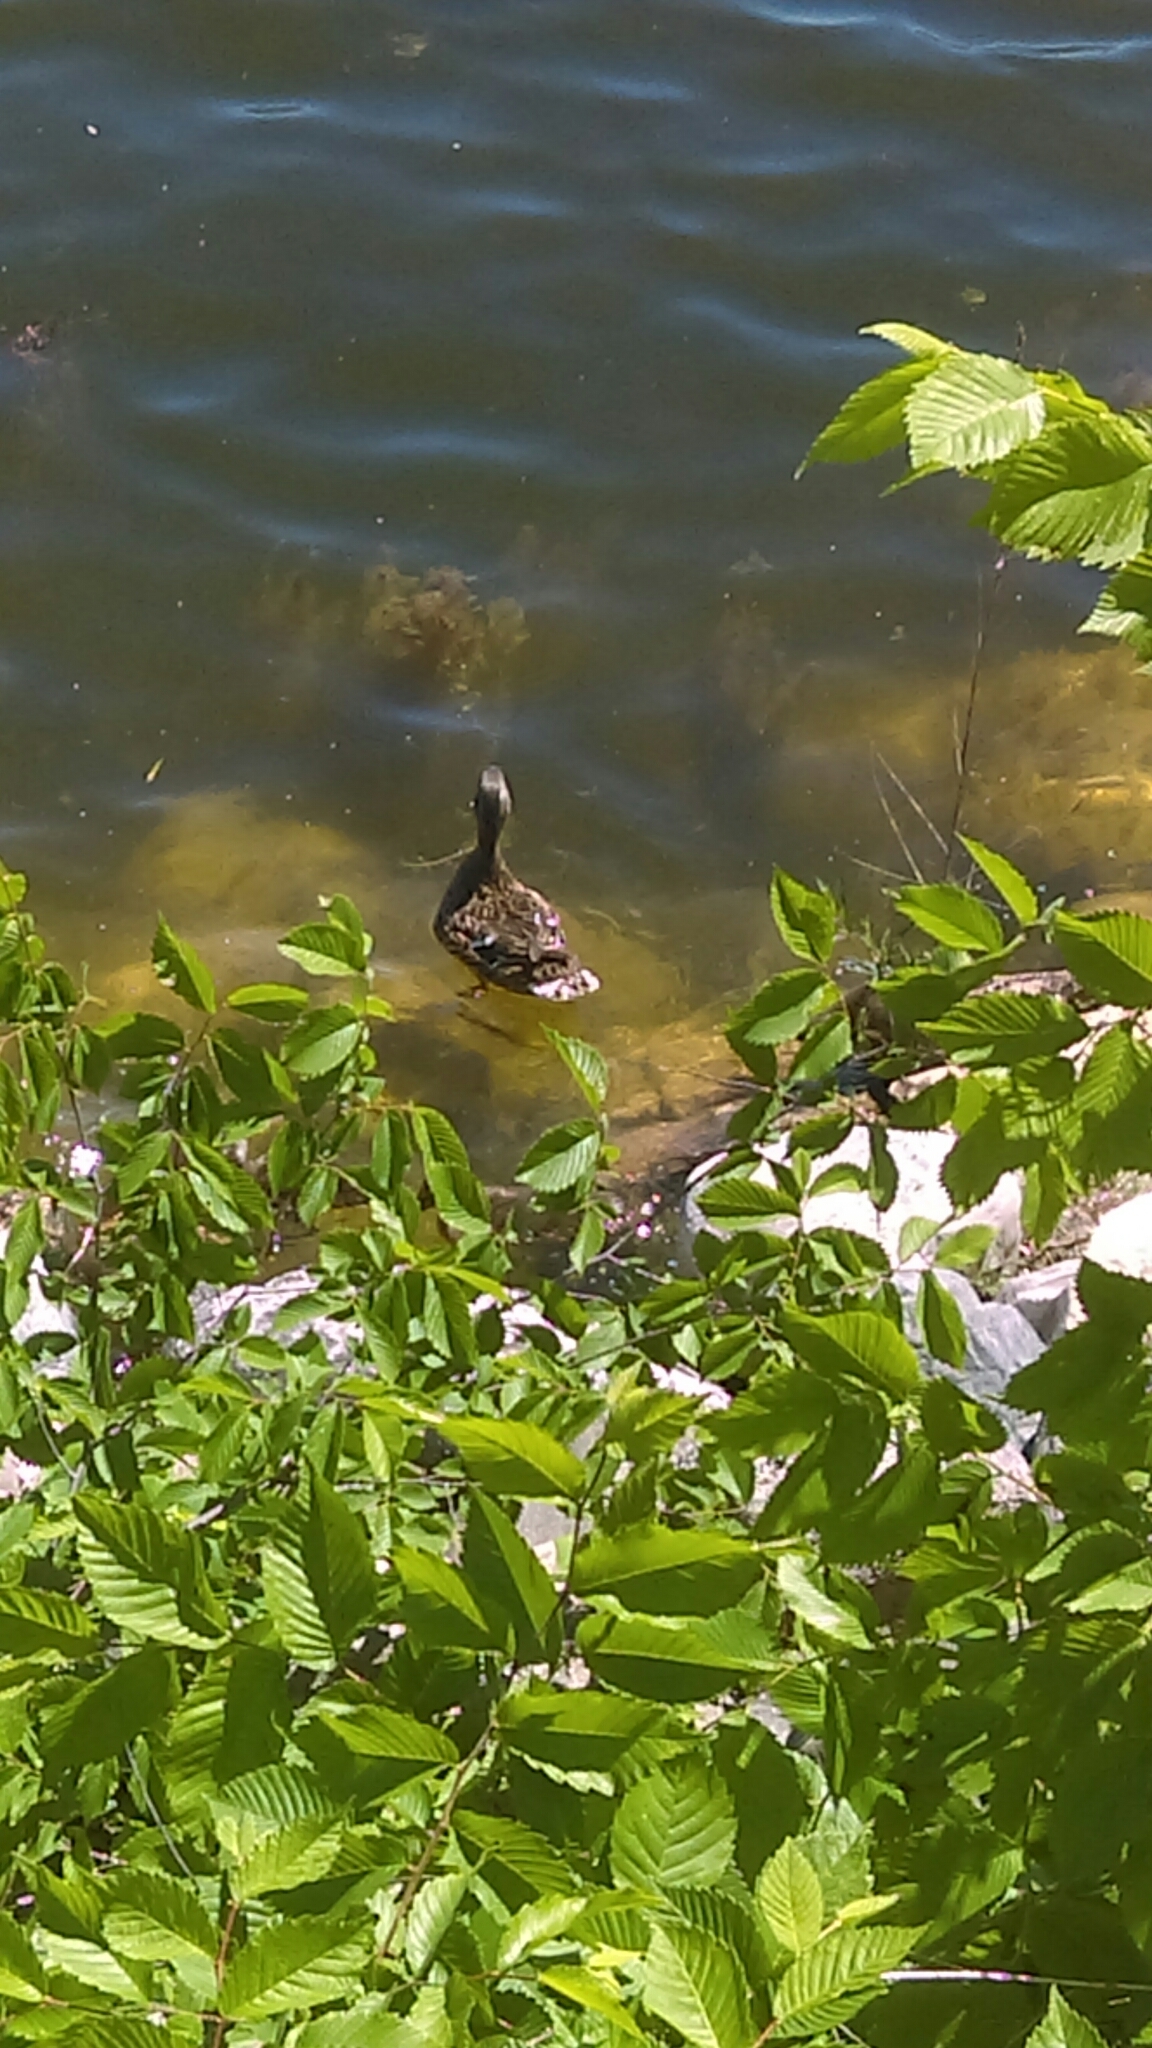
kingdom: Animalia
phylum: Chordata
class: Aves
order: Anseriformes
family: Anatidae
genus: Anas
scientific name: Anas platyrhynchos
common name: Mallard
